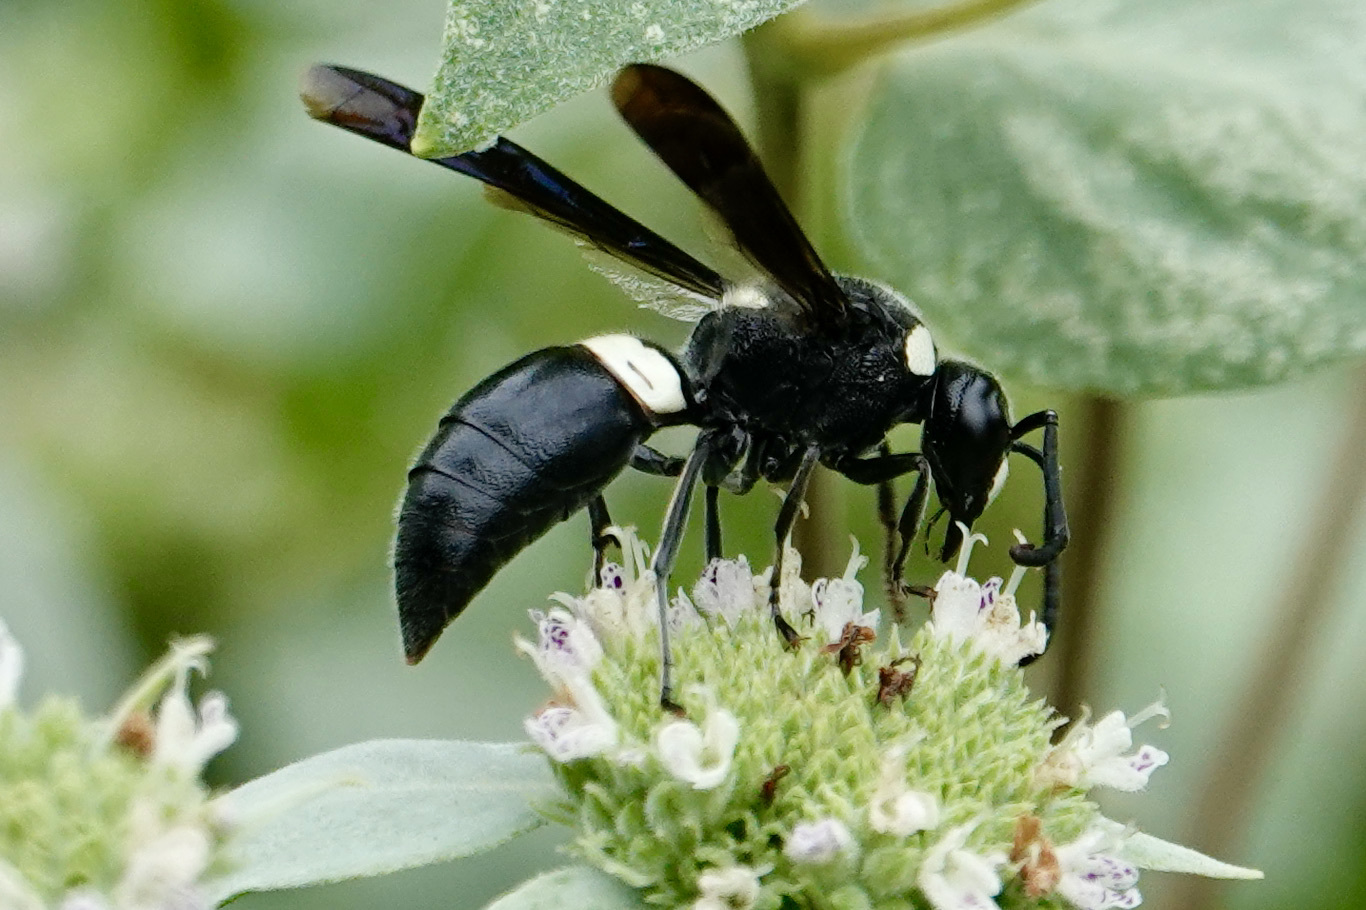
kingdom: Animalia
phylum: Arthropoda
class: Insecta
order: Hymenoptera
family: Eumenidae
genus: Monobia
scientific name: Monobia quadridens
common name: Four-toothed mason wasp
